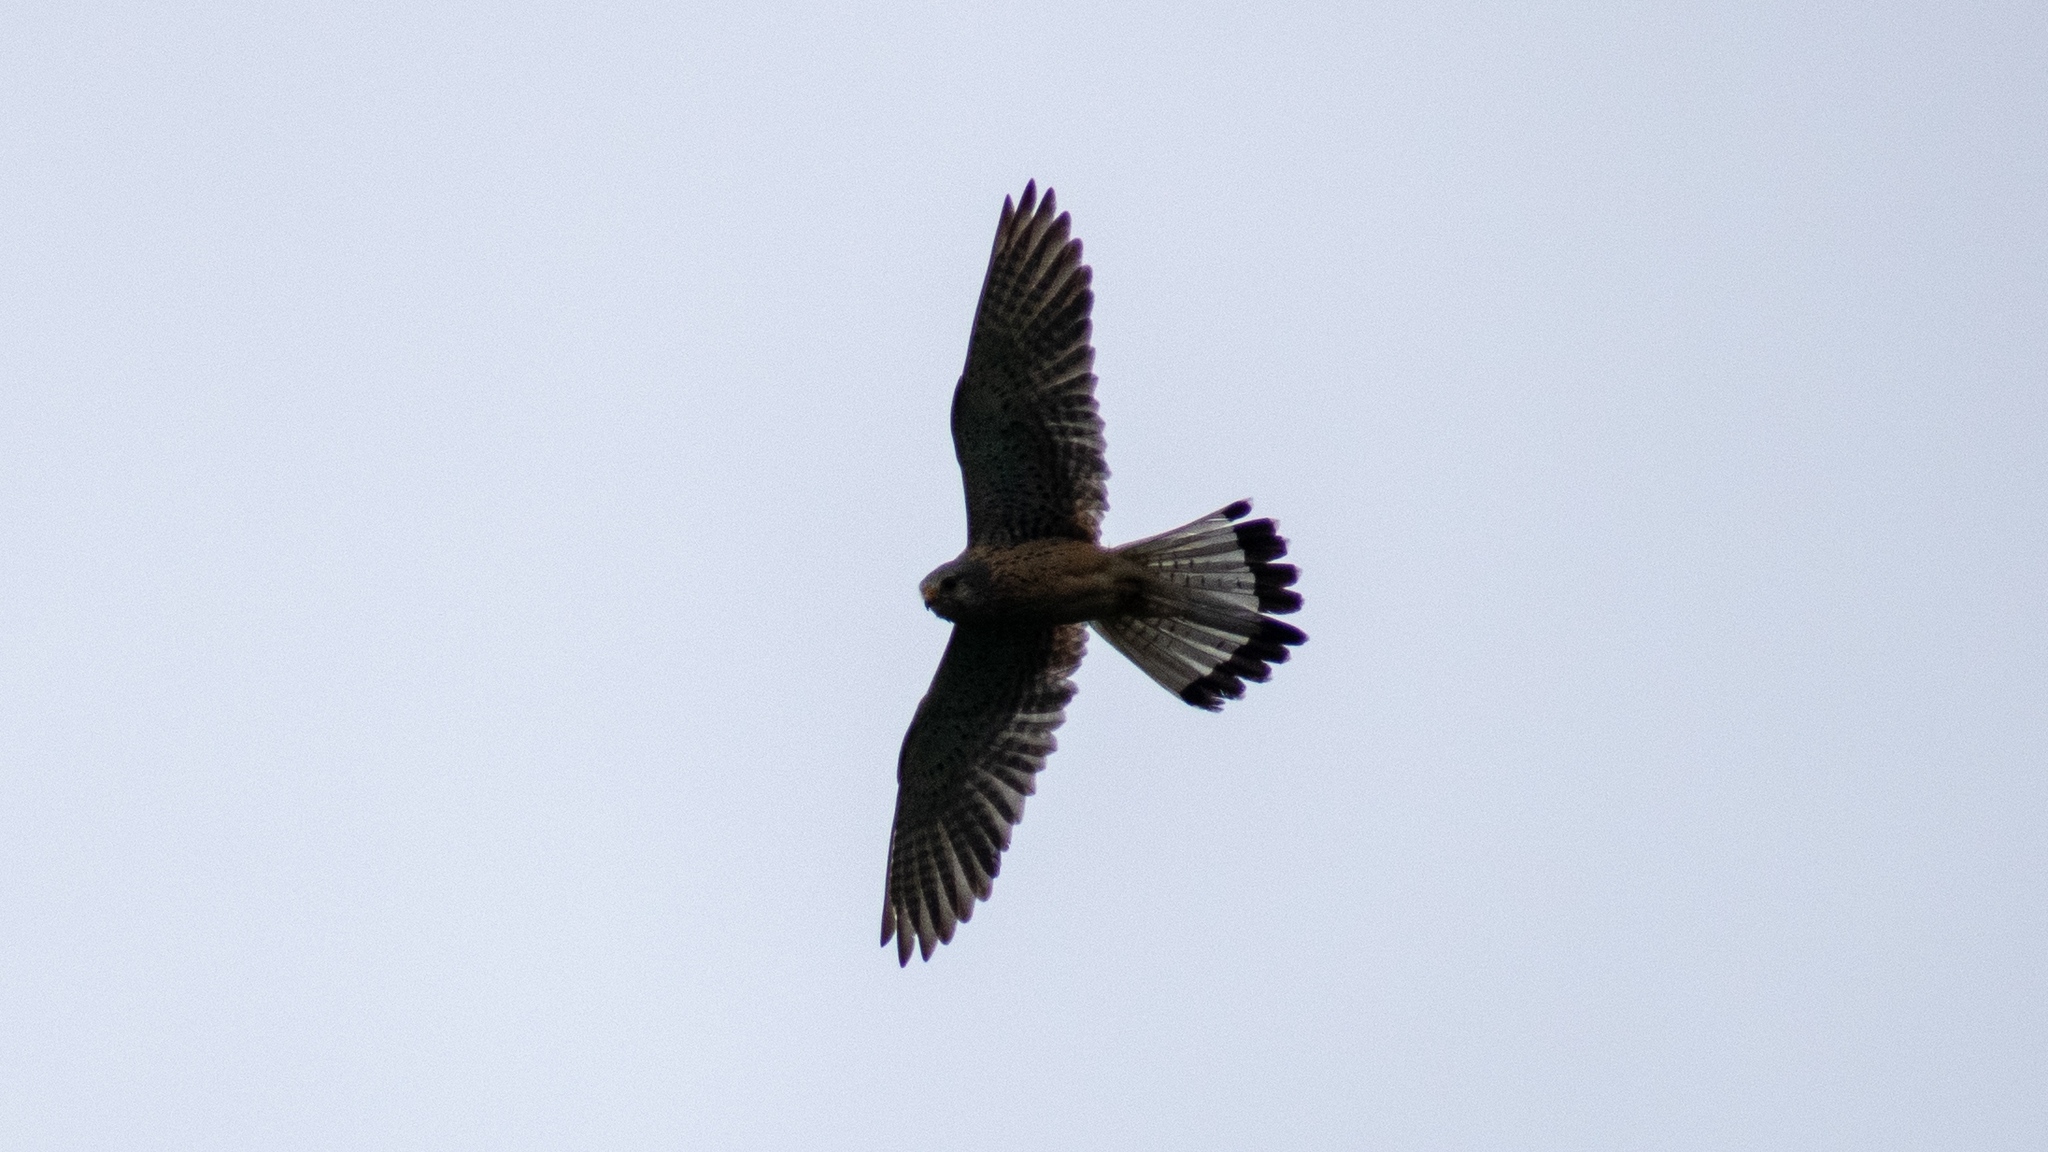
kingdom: Animalia
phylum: Chordata
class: Aves
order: Falconiformes
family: Falconidae
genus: Falco
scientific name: Falco tinnunculus
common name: Common kestrel
